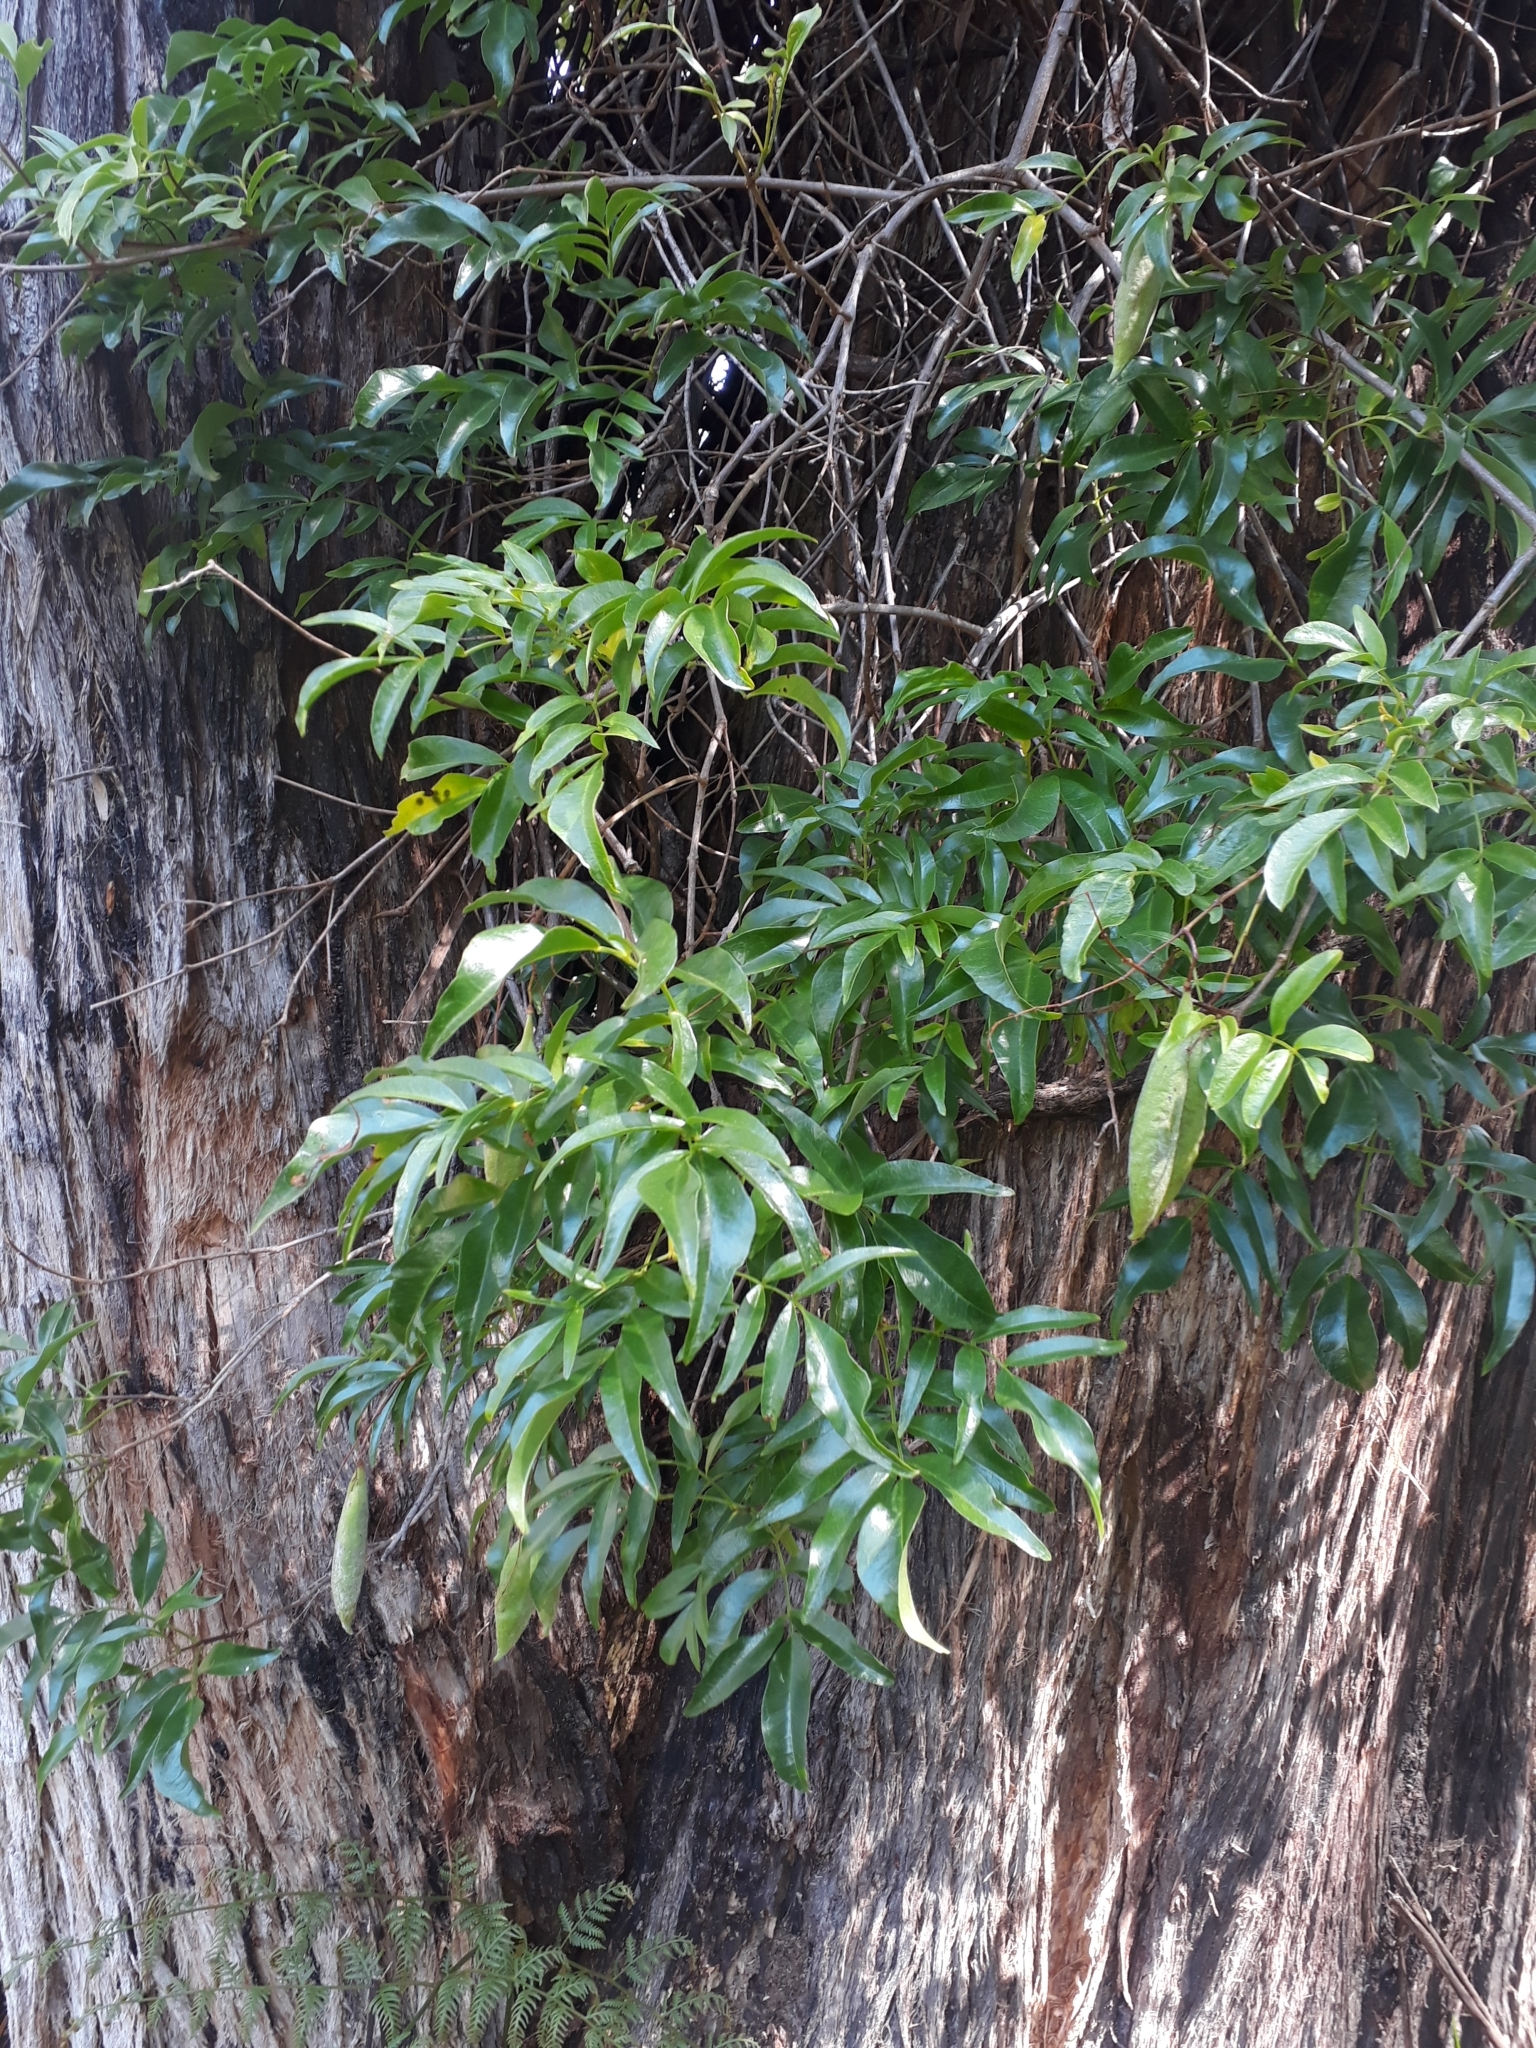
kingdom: Plantae
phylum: Tracheophyta
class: Magnoliopsida
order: Lamiales
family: Bignoniaceae
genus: Pandorea
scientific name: Pandorea pandorana
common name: Wonga-wonga-vine
